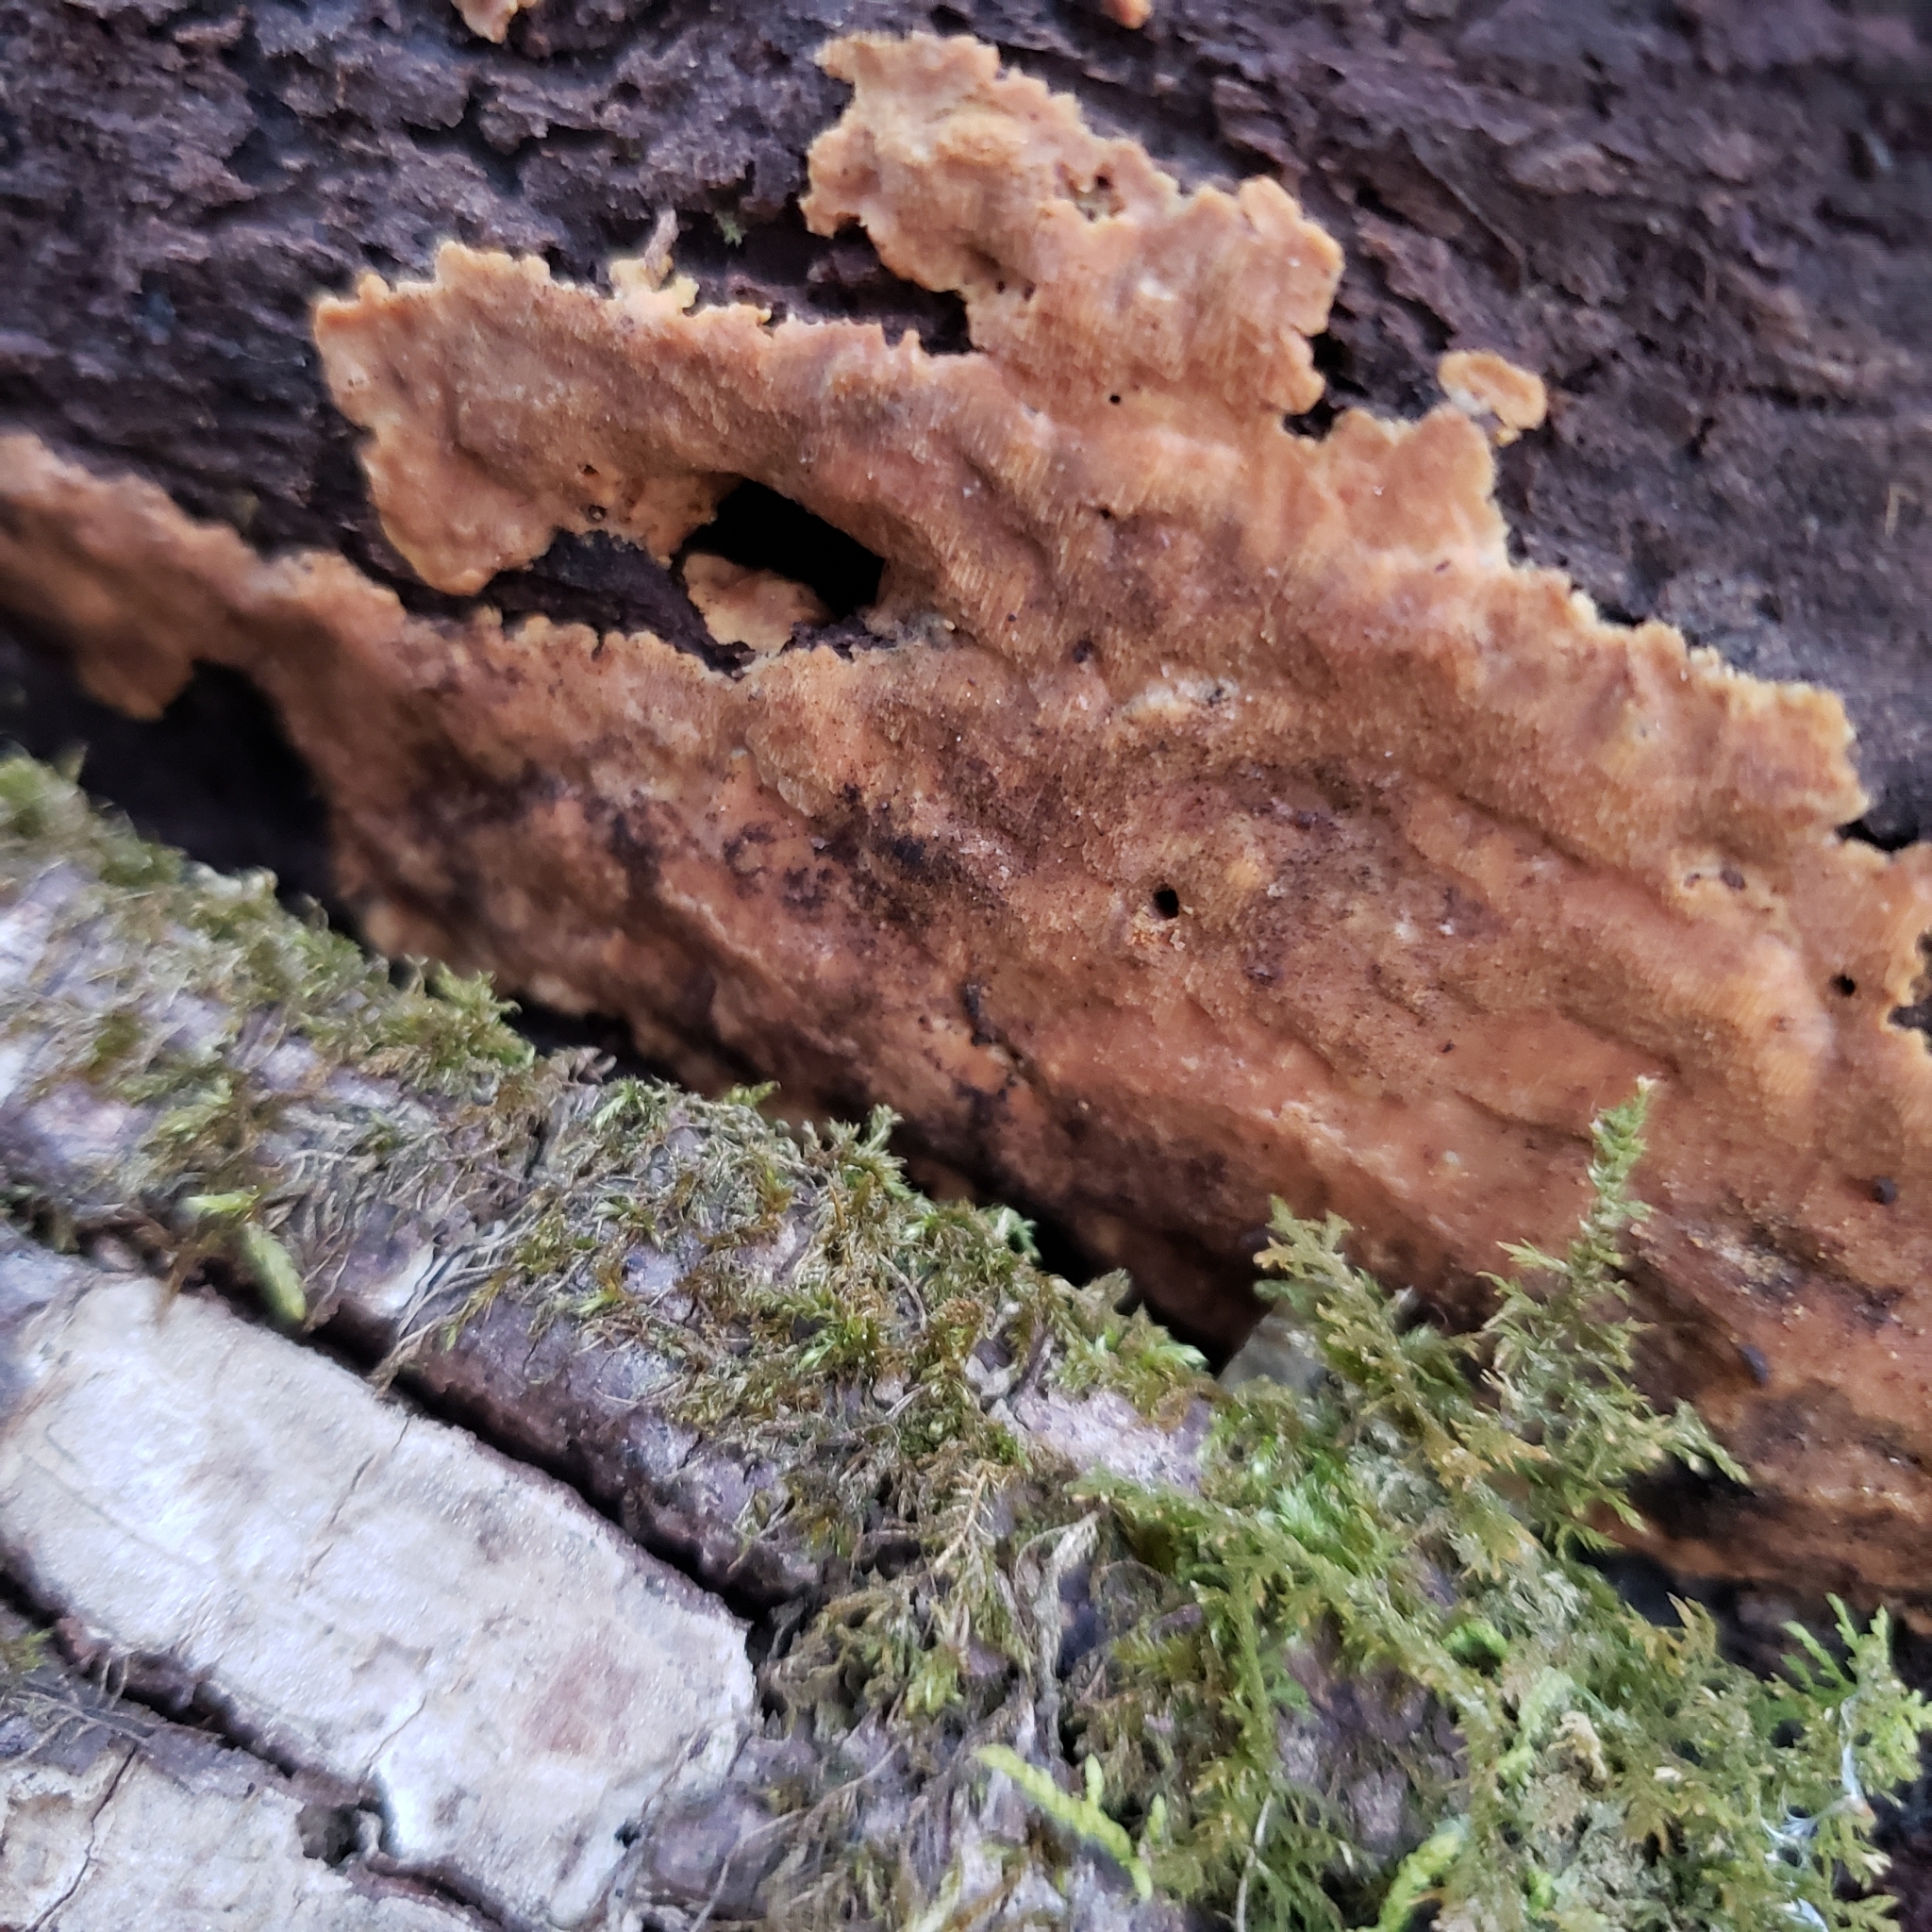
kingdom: Fungi
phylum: Basidiomycota
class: Agaricomycetes
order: Polyporales
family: Meripilaceae
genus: Rigidoporus
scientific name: Rigidoporus crocatus
